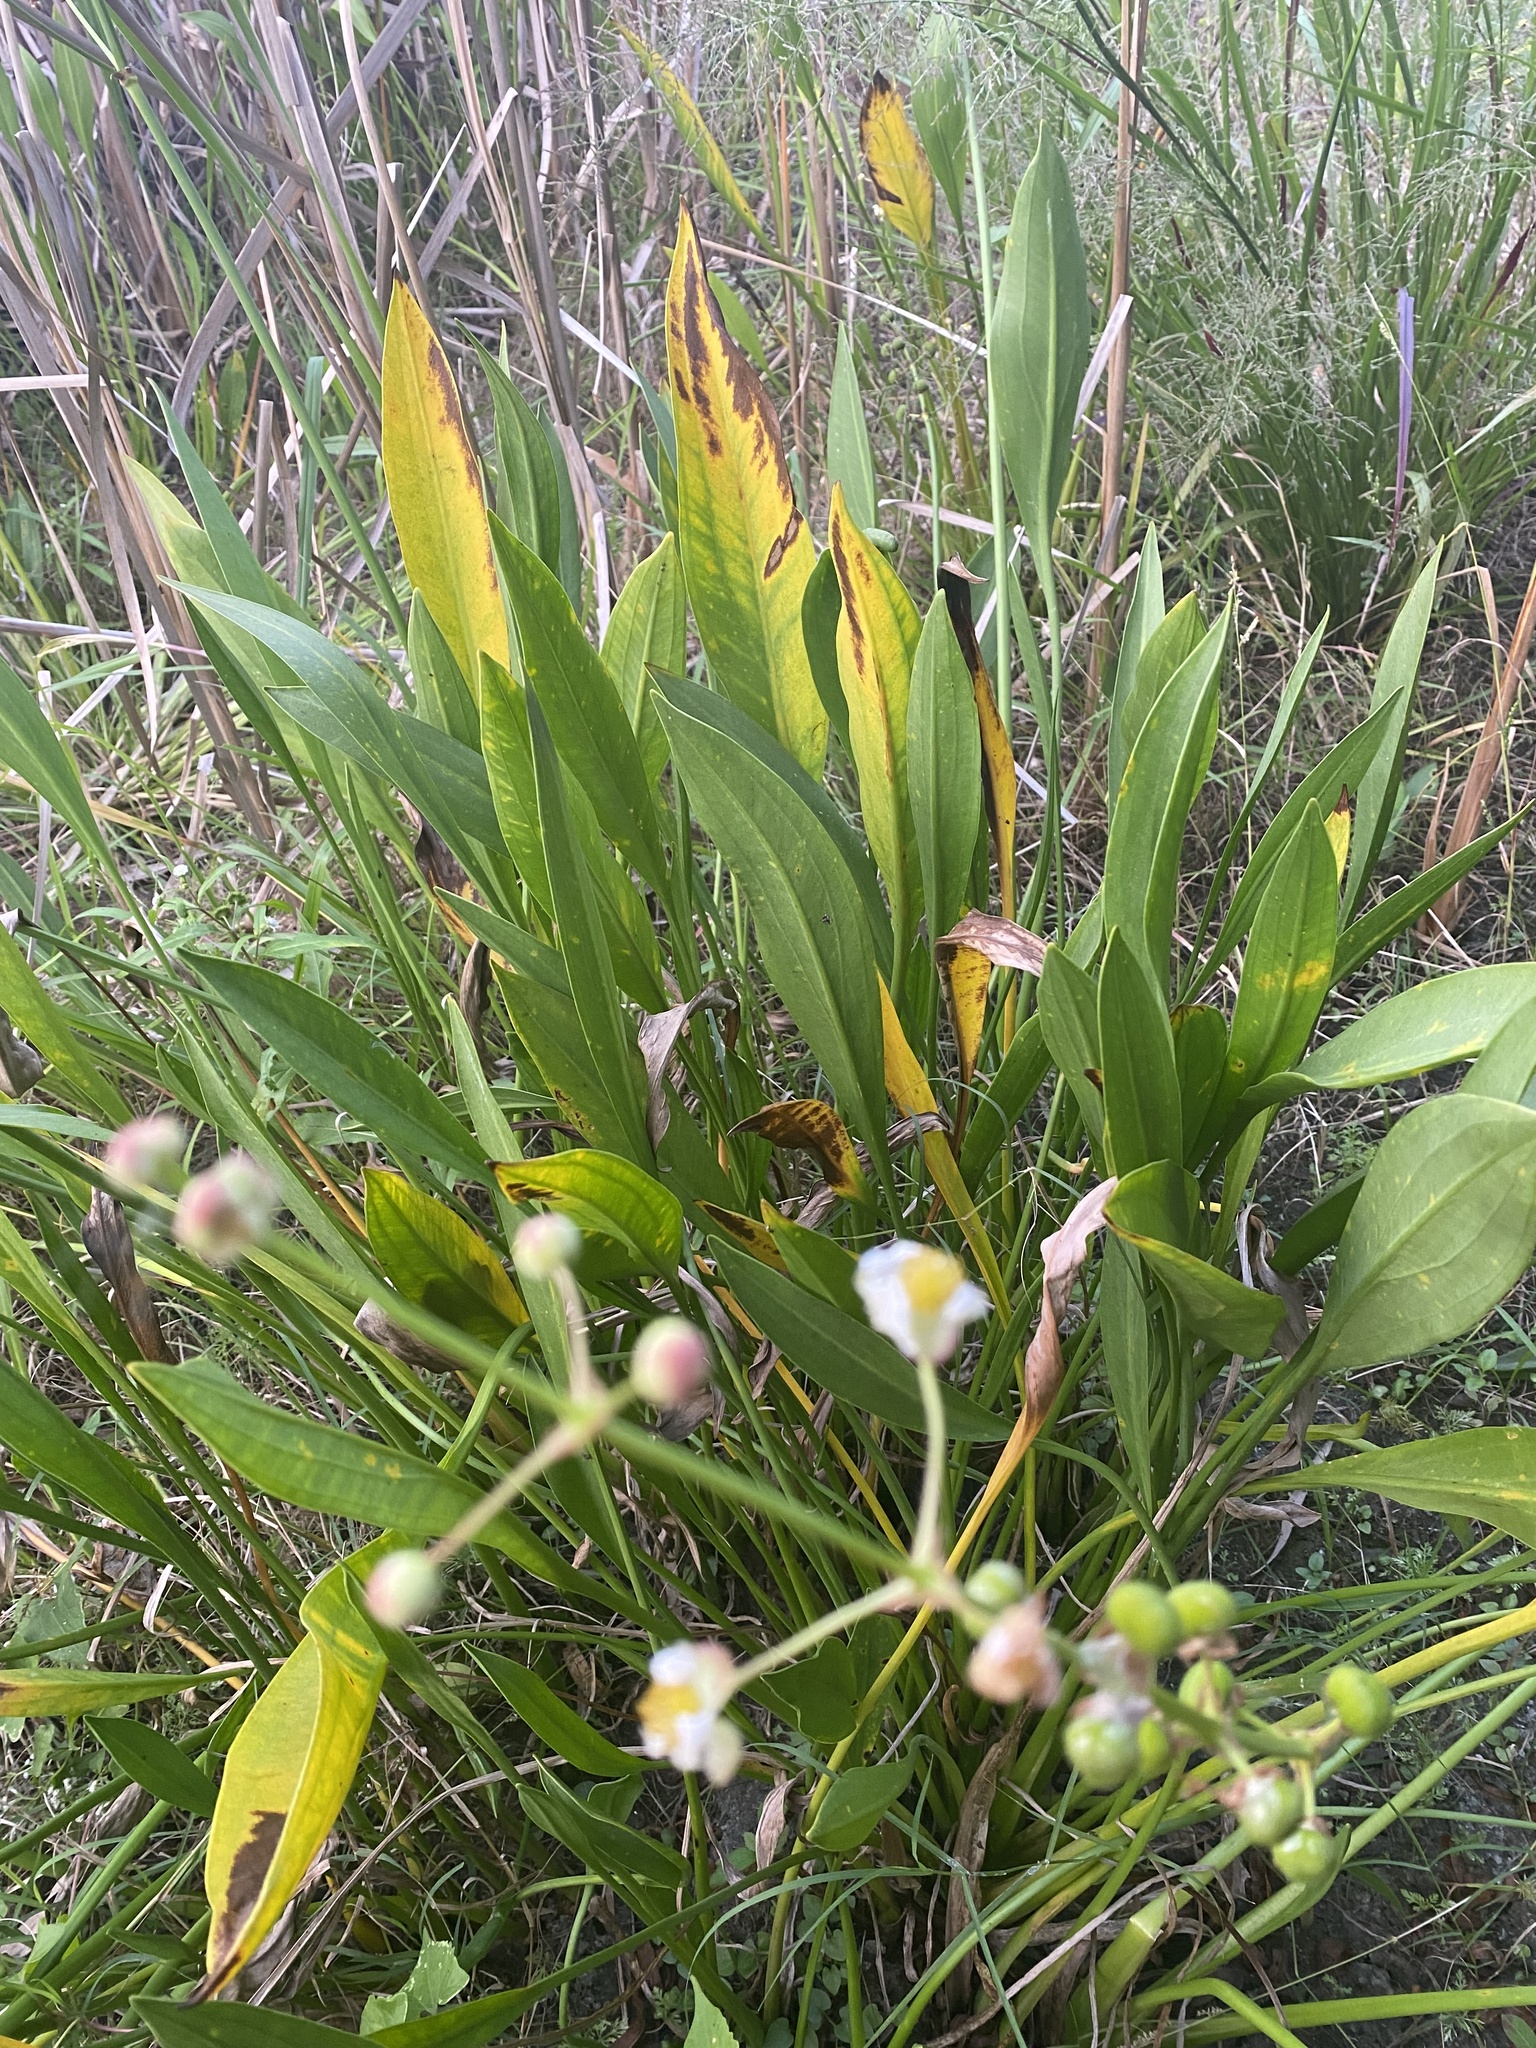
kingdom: Plantae
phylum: Tracheophyta
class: Liliopsida
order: Alismatales
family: Alismataceae
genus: Sagittaria
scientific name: Sagittaria lancifolia
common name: Lance-leaf arrowhead
